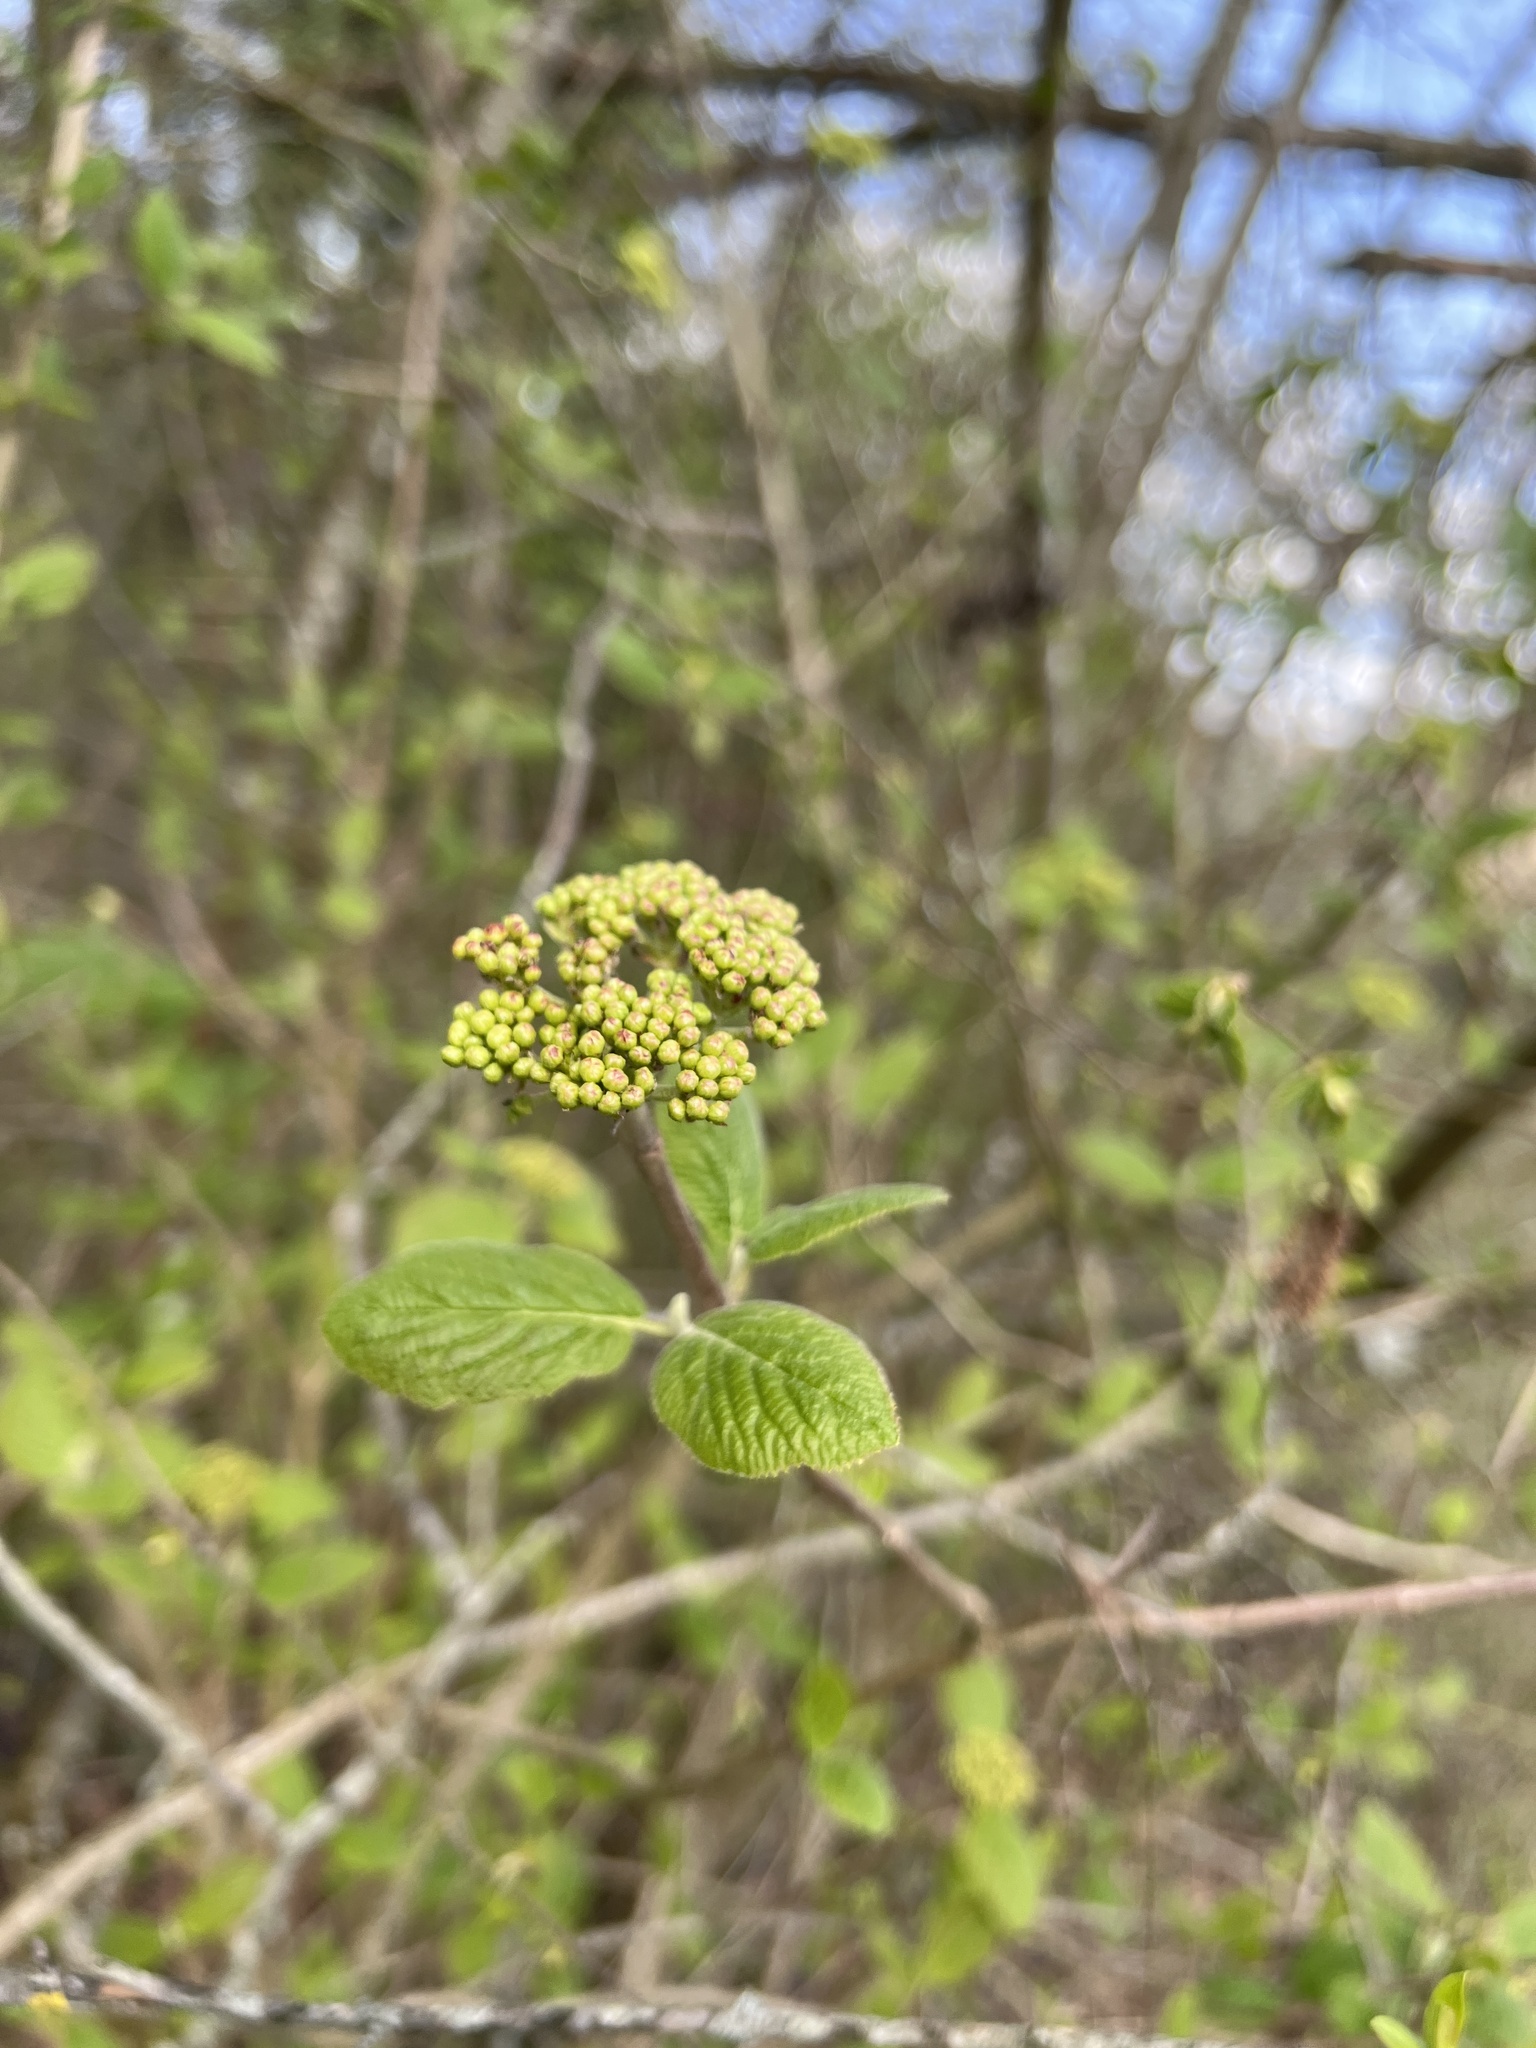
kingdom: Plantae
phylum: Tracheophyta
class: Magnoliopsida
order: Dipsacales
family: Viburnaceae
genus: Viburnum
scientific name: Viburnum lantana
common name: Wayfaring tree
